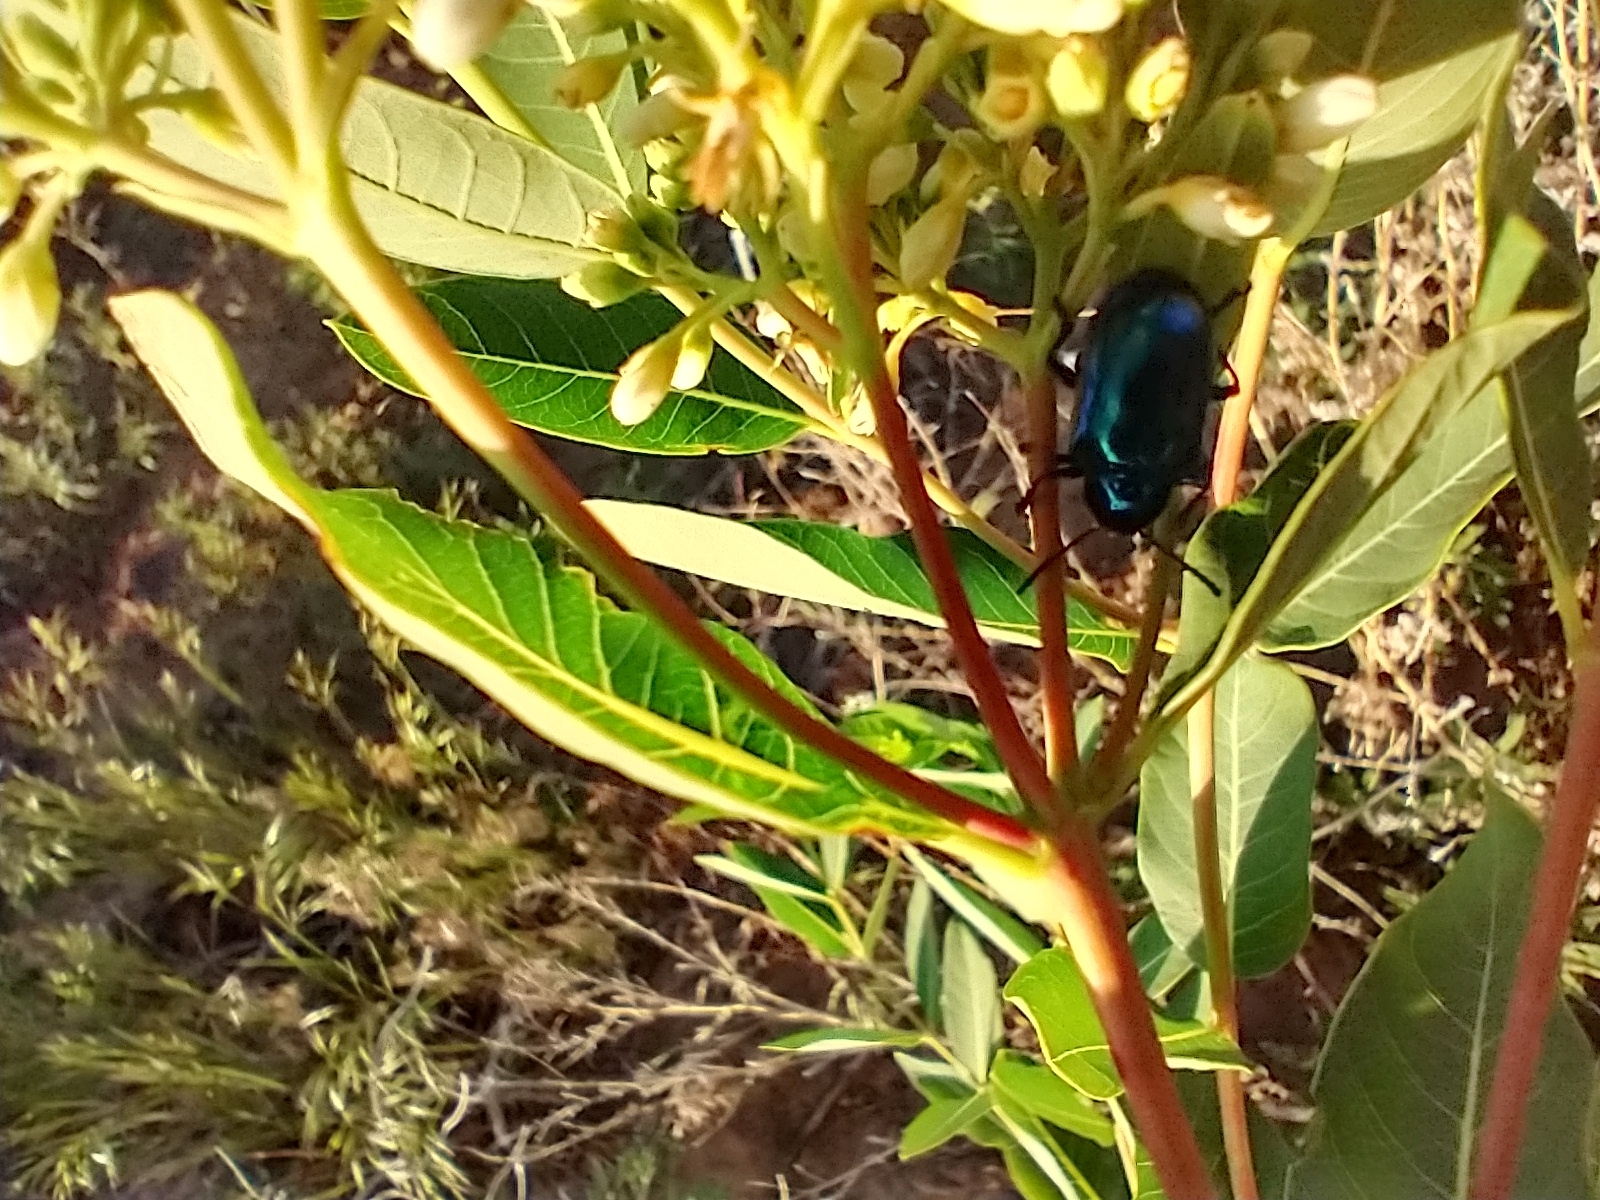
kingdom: Animalia
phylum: Arthropoda
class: Insecta
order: Coleoptera
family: Chrysomelidae
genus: Chrysochus
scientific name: Chrysochus cobaltinus
